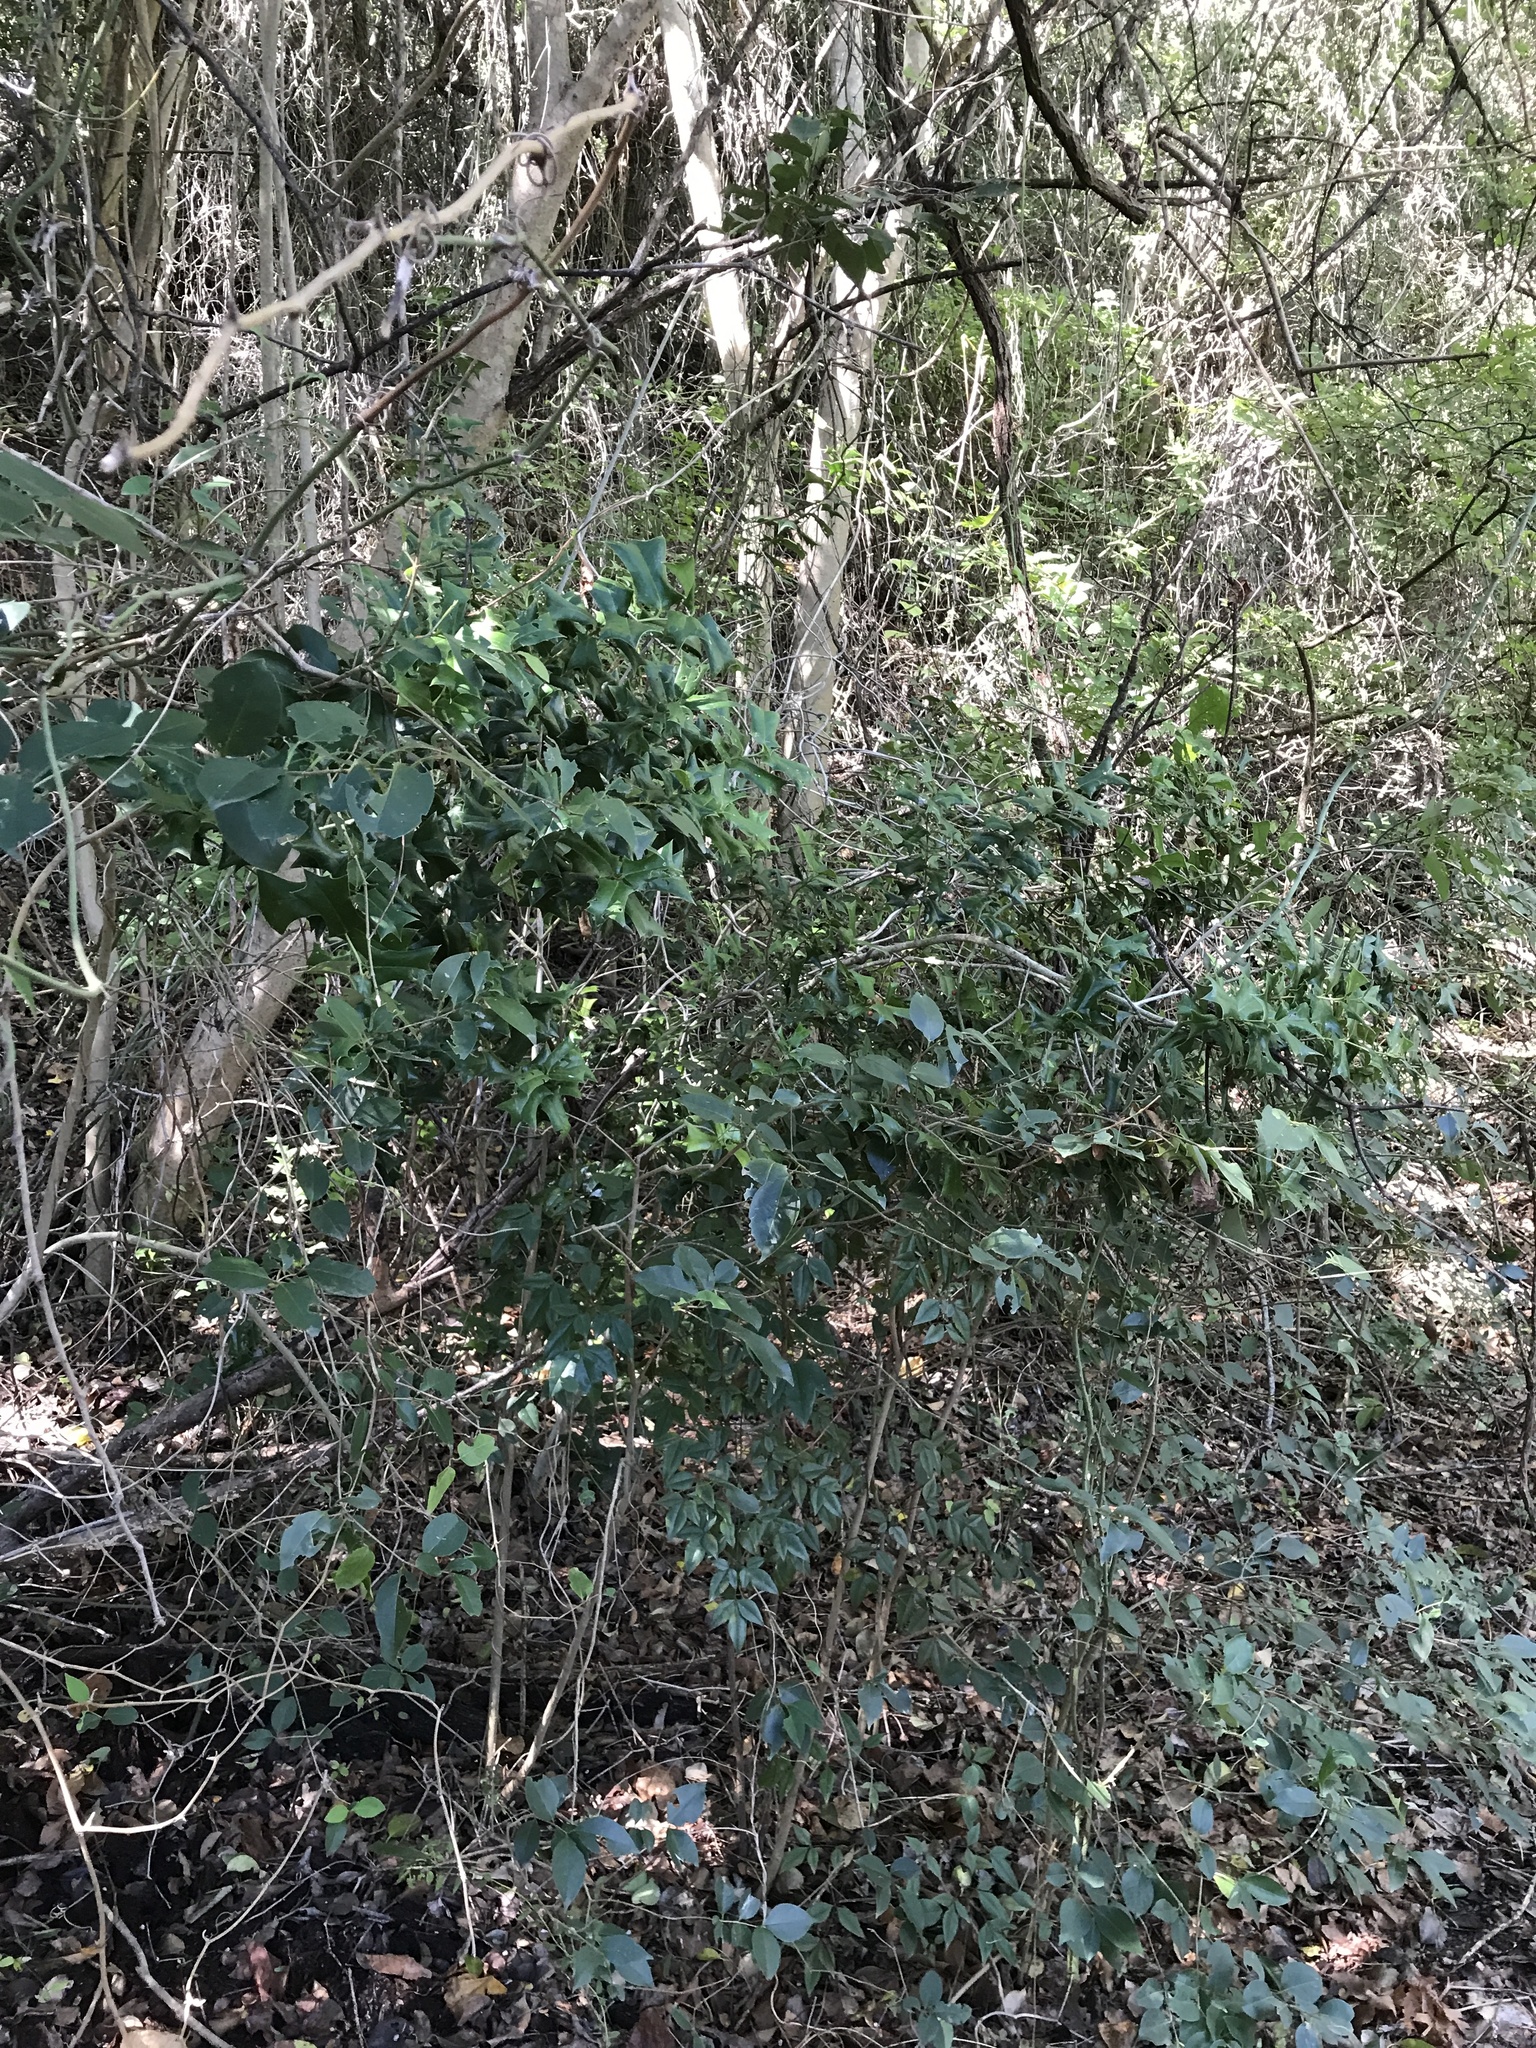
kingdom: Plantae
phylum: Tracheophyta
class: Magnoliopsida
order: Aquifoliales
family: Aquifoliaceae
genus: Ilex
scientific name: Ilex cornuta
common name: Chinese holly
